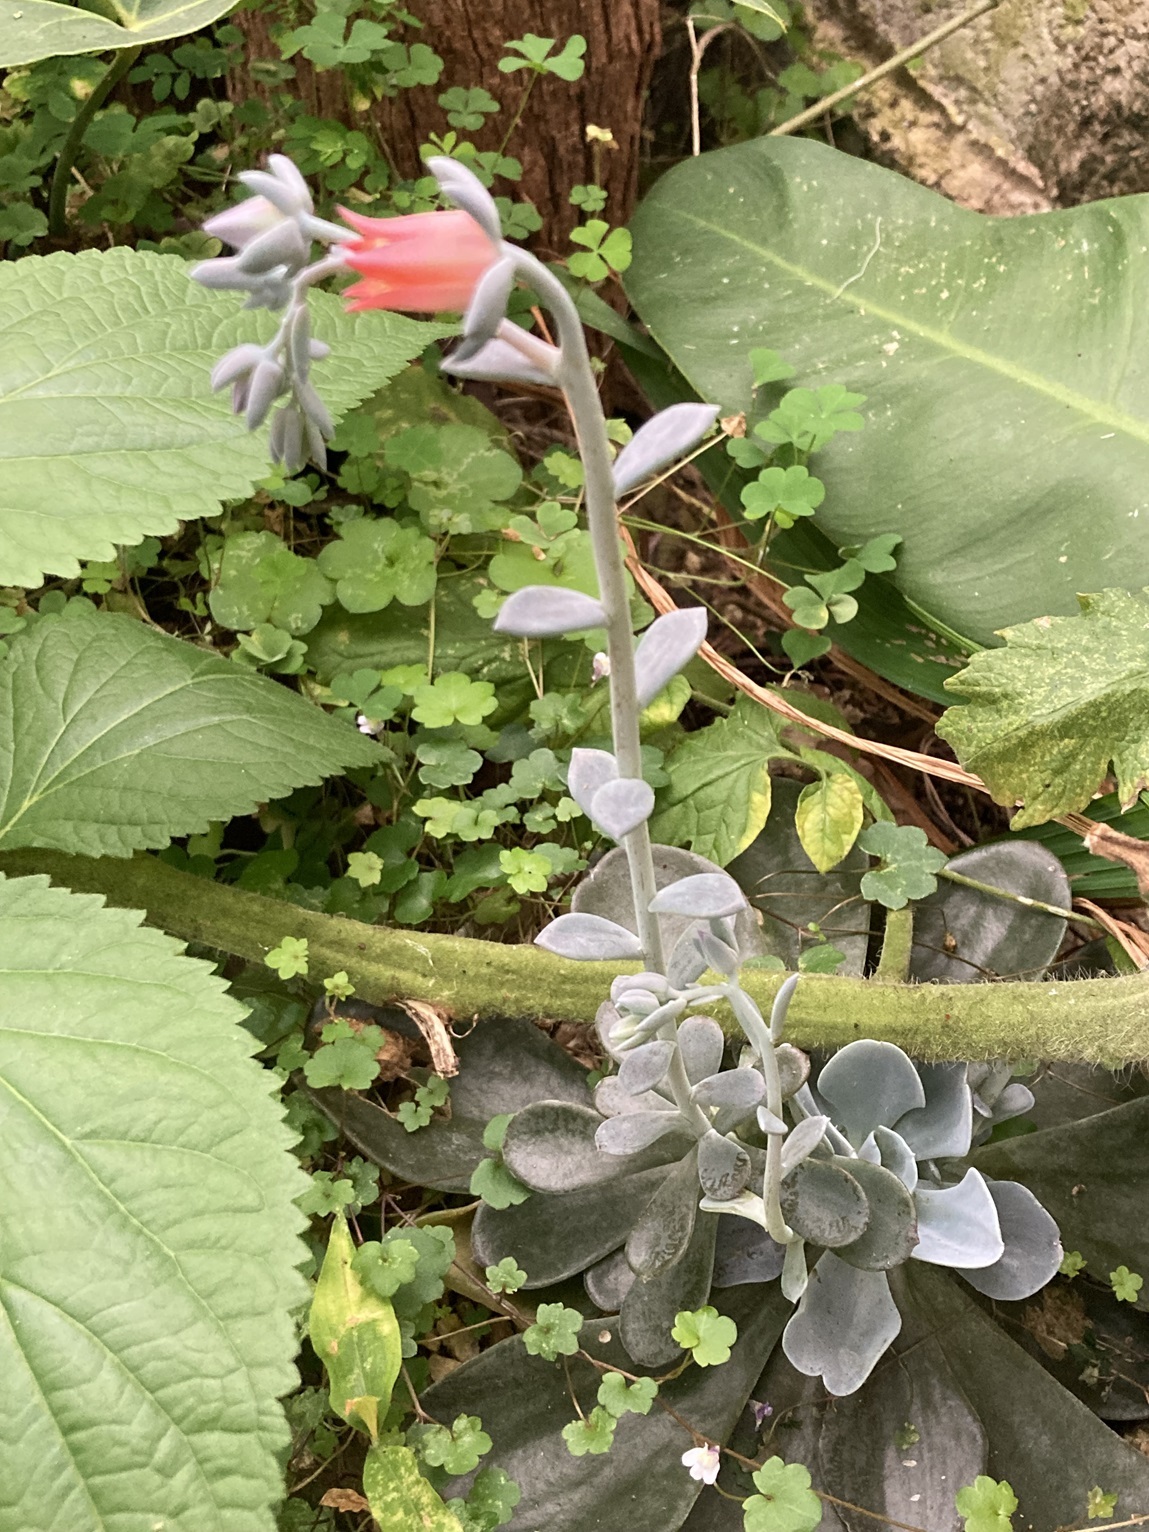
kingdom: Plantae
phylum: Tracheophyta
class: Magnoliopsida
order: Saxifragales
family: Crassulaceae
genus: Echeveria
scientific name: Echeveria prunina
